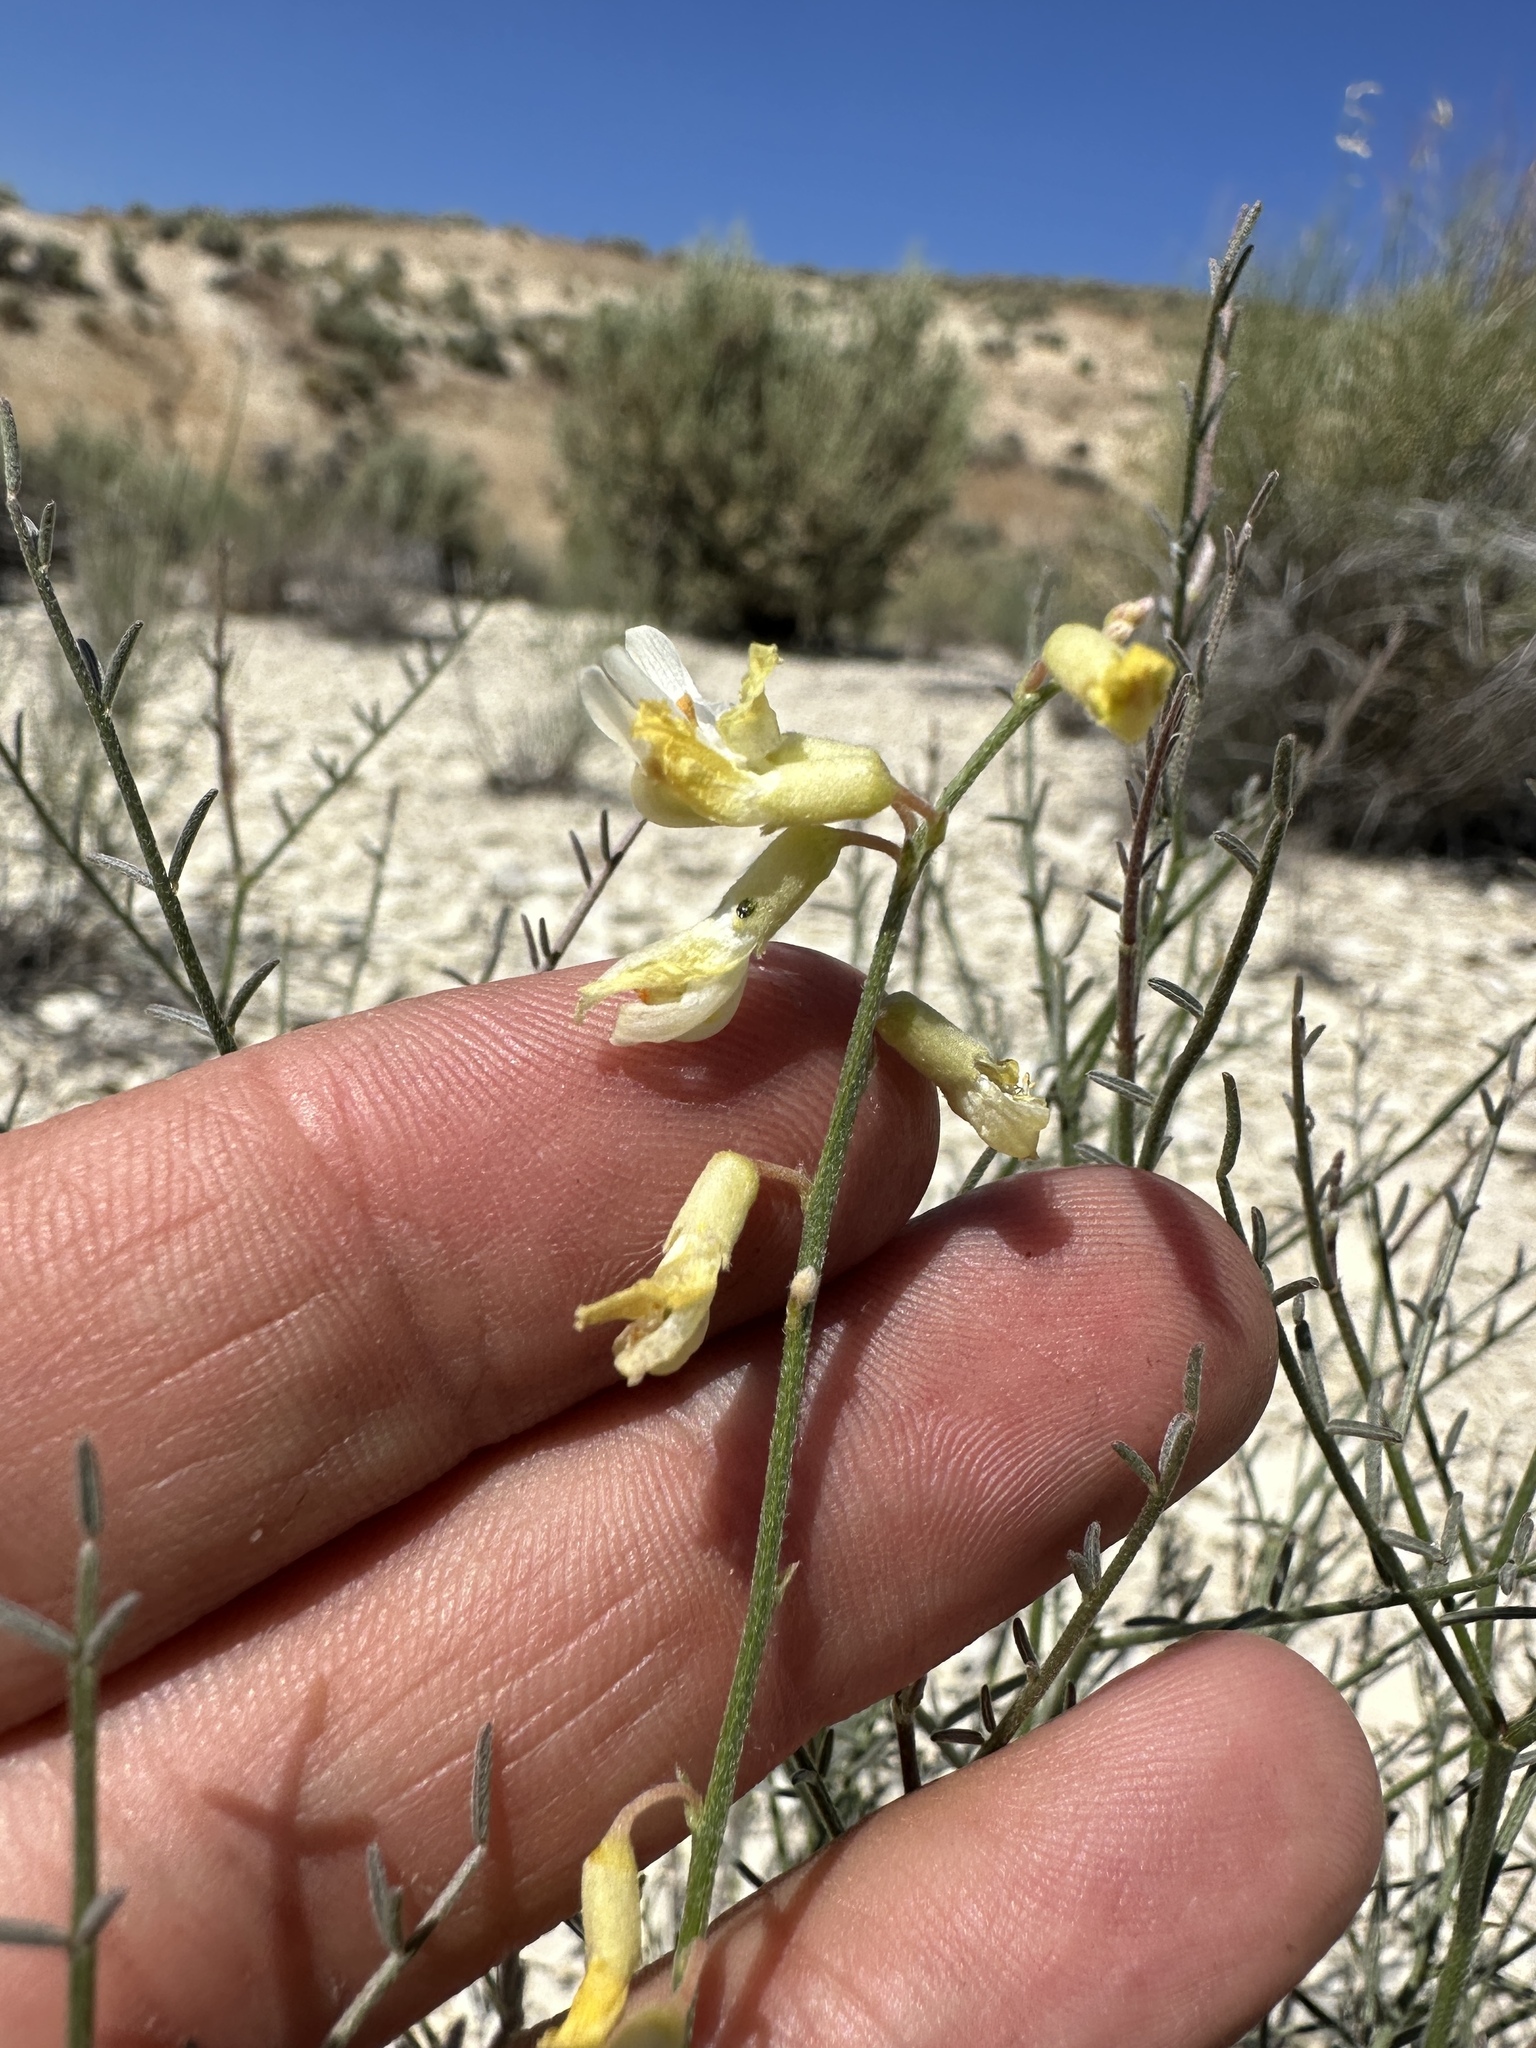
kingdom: Plantae
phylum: Tracheophyta
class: Magnoliopsida
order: Fabales
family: Fabaceae
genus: Astragalus
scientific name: Astragalus filipes
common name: Basalt milk-vetch
